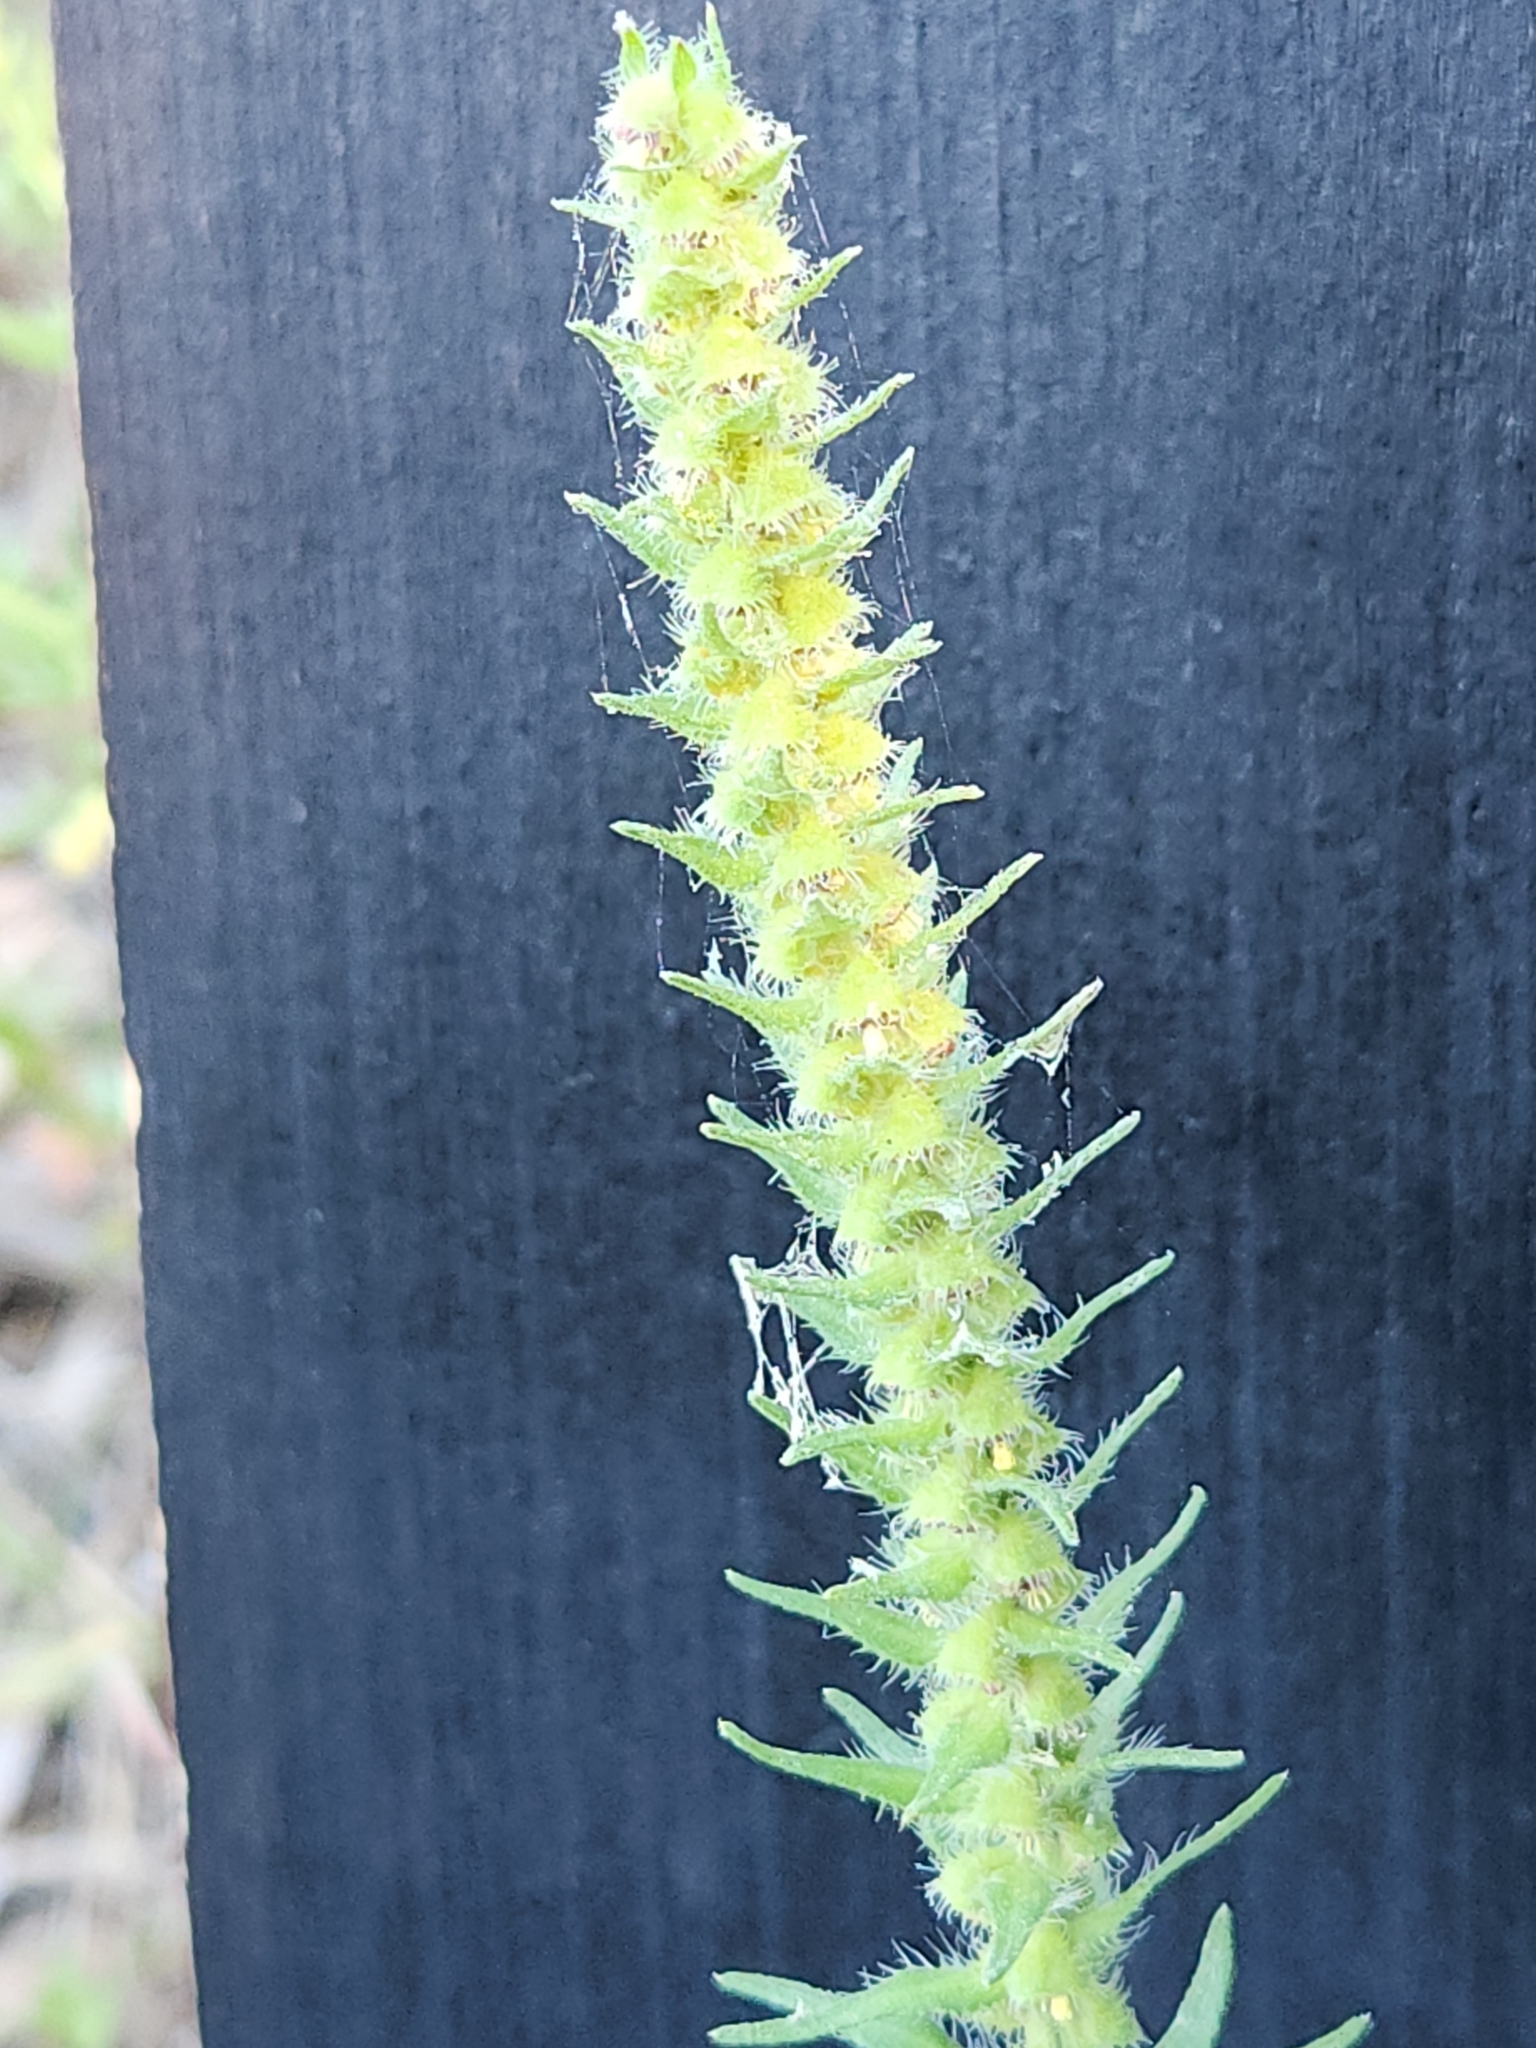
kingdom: Plantae
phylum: Tracheophyta
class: Magnoliopsida
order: Asterales
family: Asteraceae
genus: Iva
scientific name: Iva annua
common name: Marsh-elder
